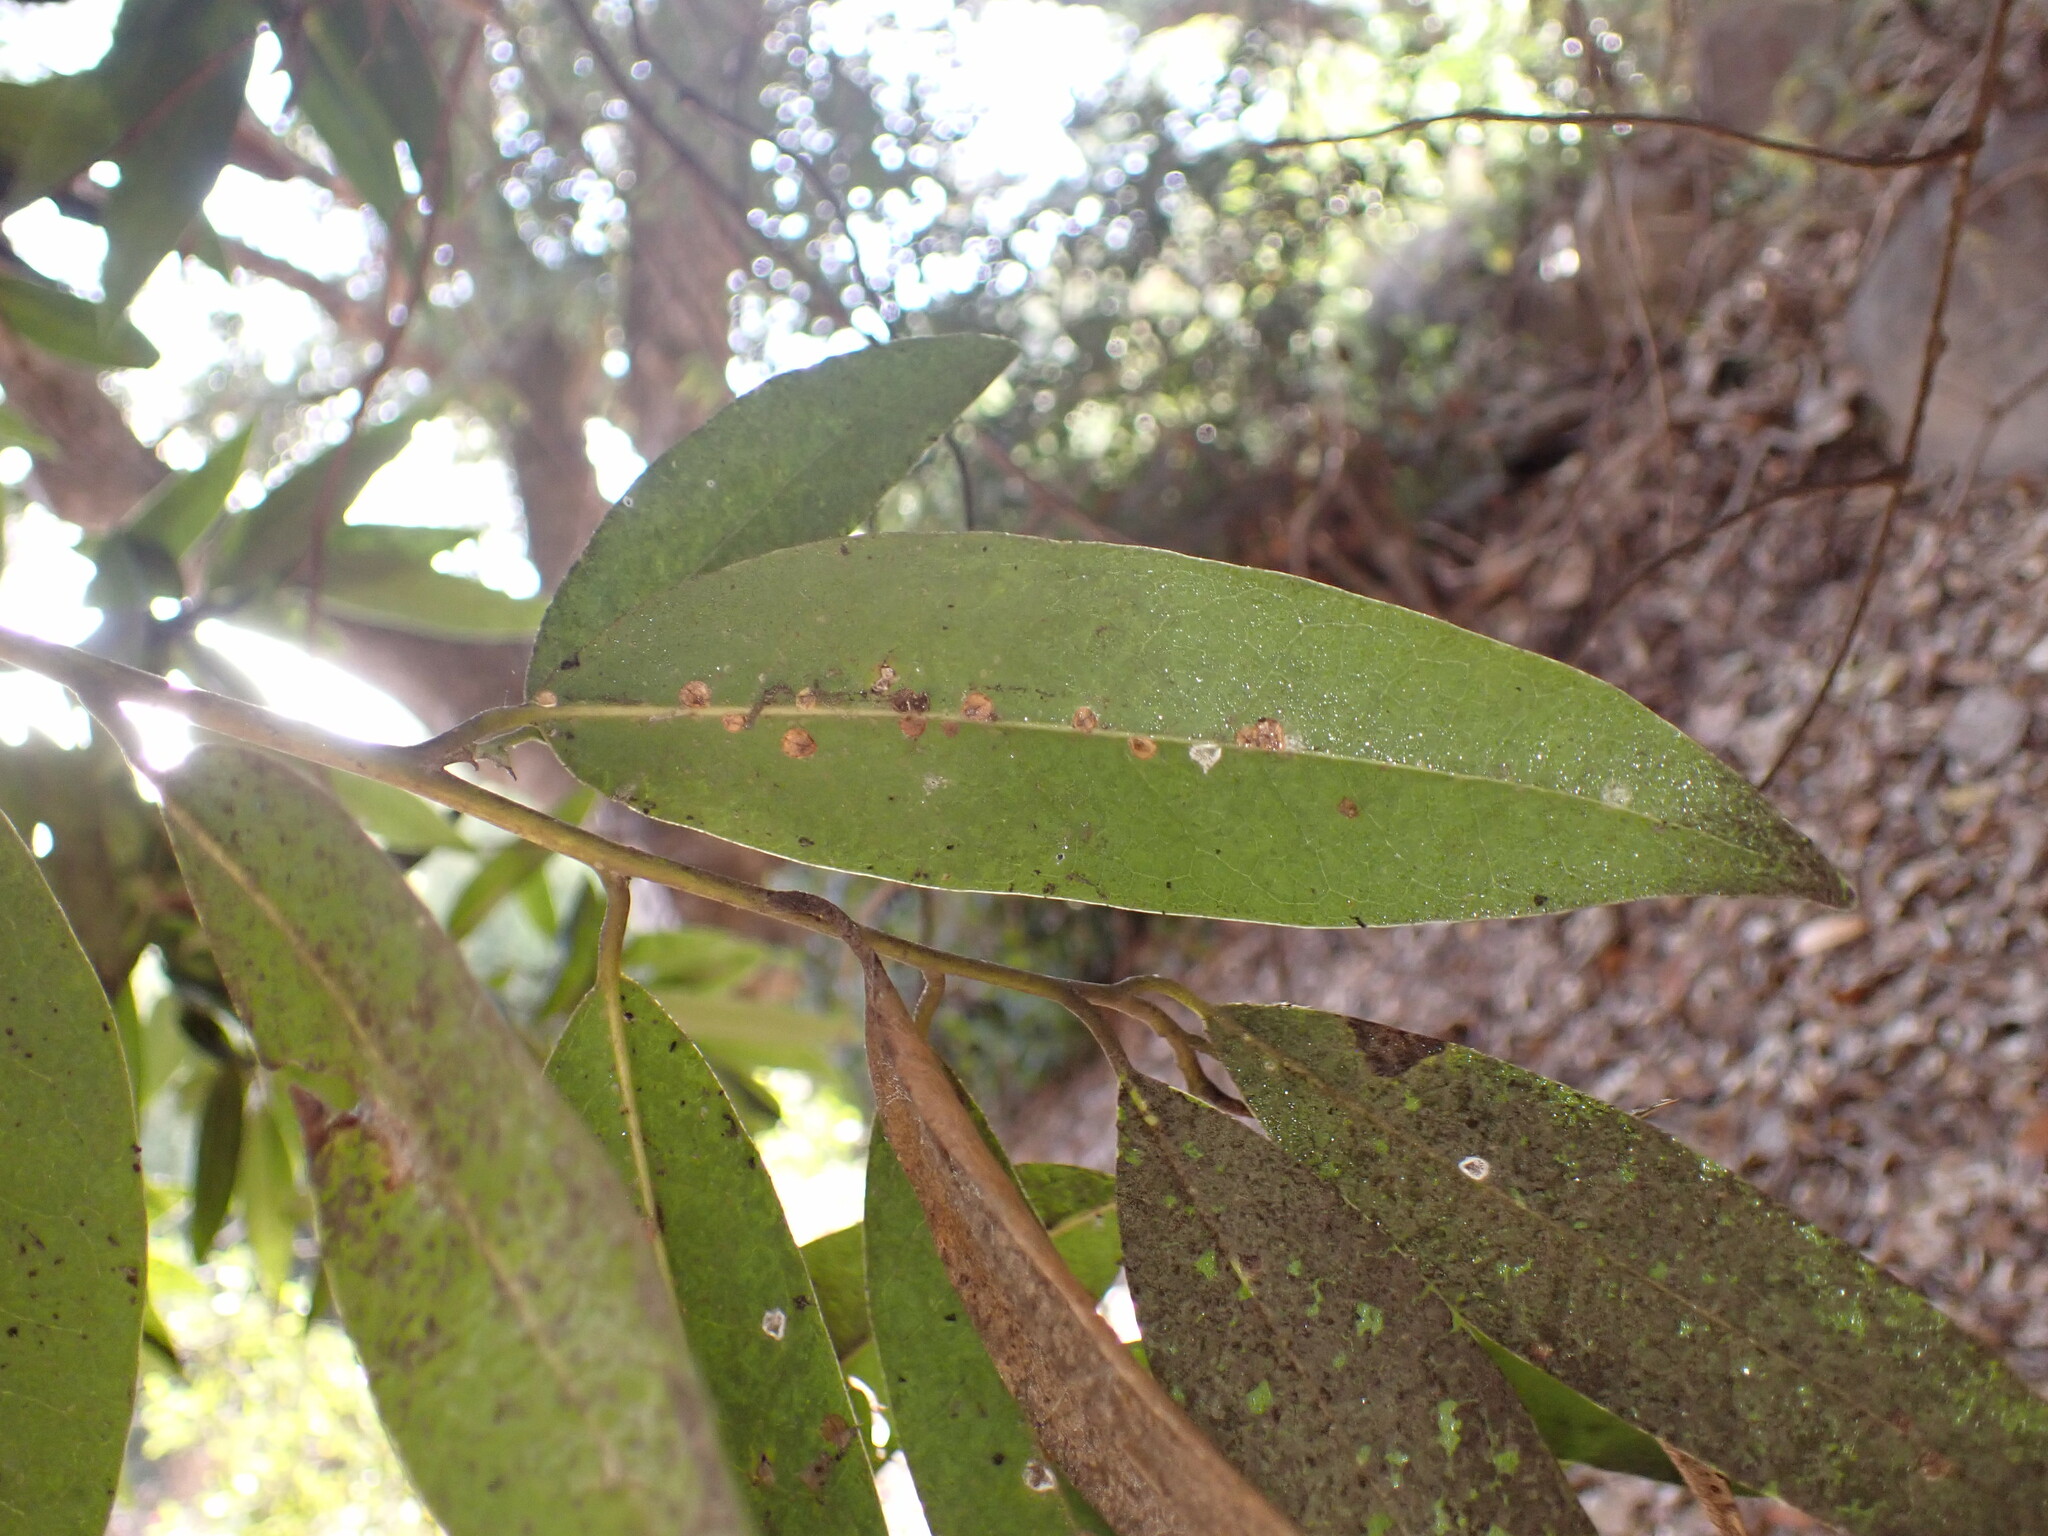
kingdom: Animalia
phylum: Arthropoda
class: Insecta
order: Hemiptera
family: Coccidae
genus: Protopulvinaria
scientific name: Protopulvinaria pyriformis
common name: Pyriform scale
